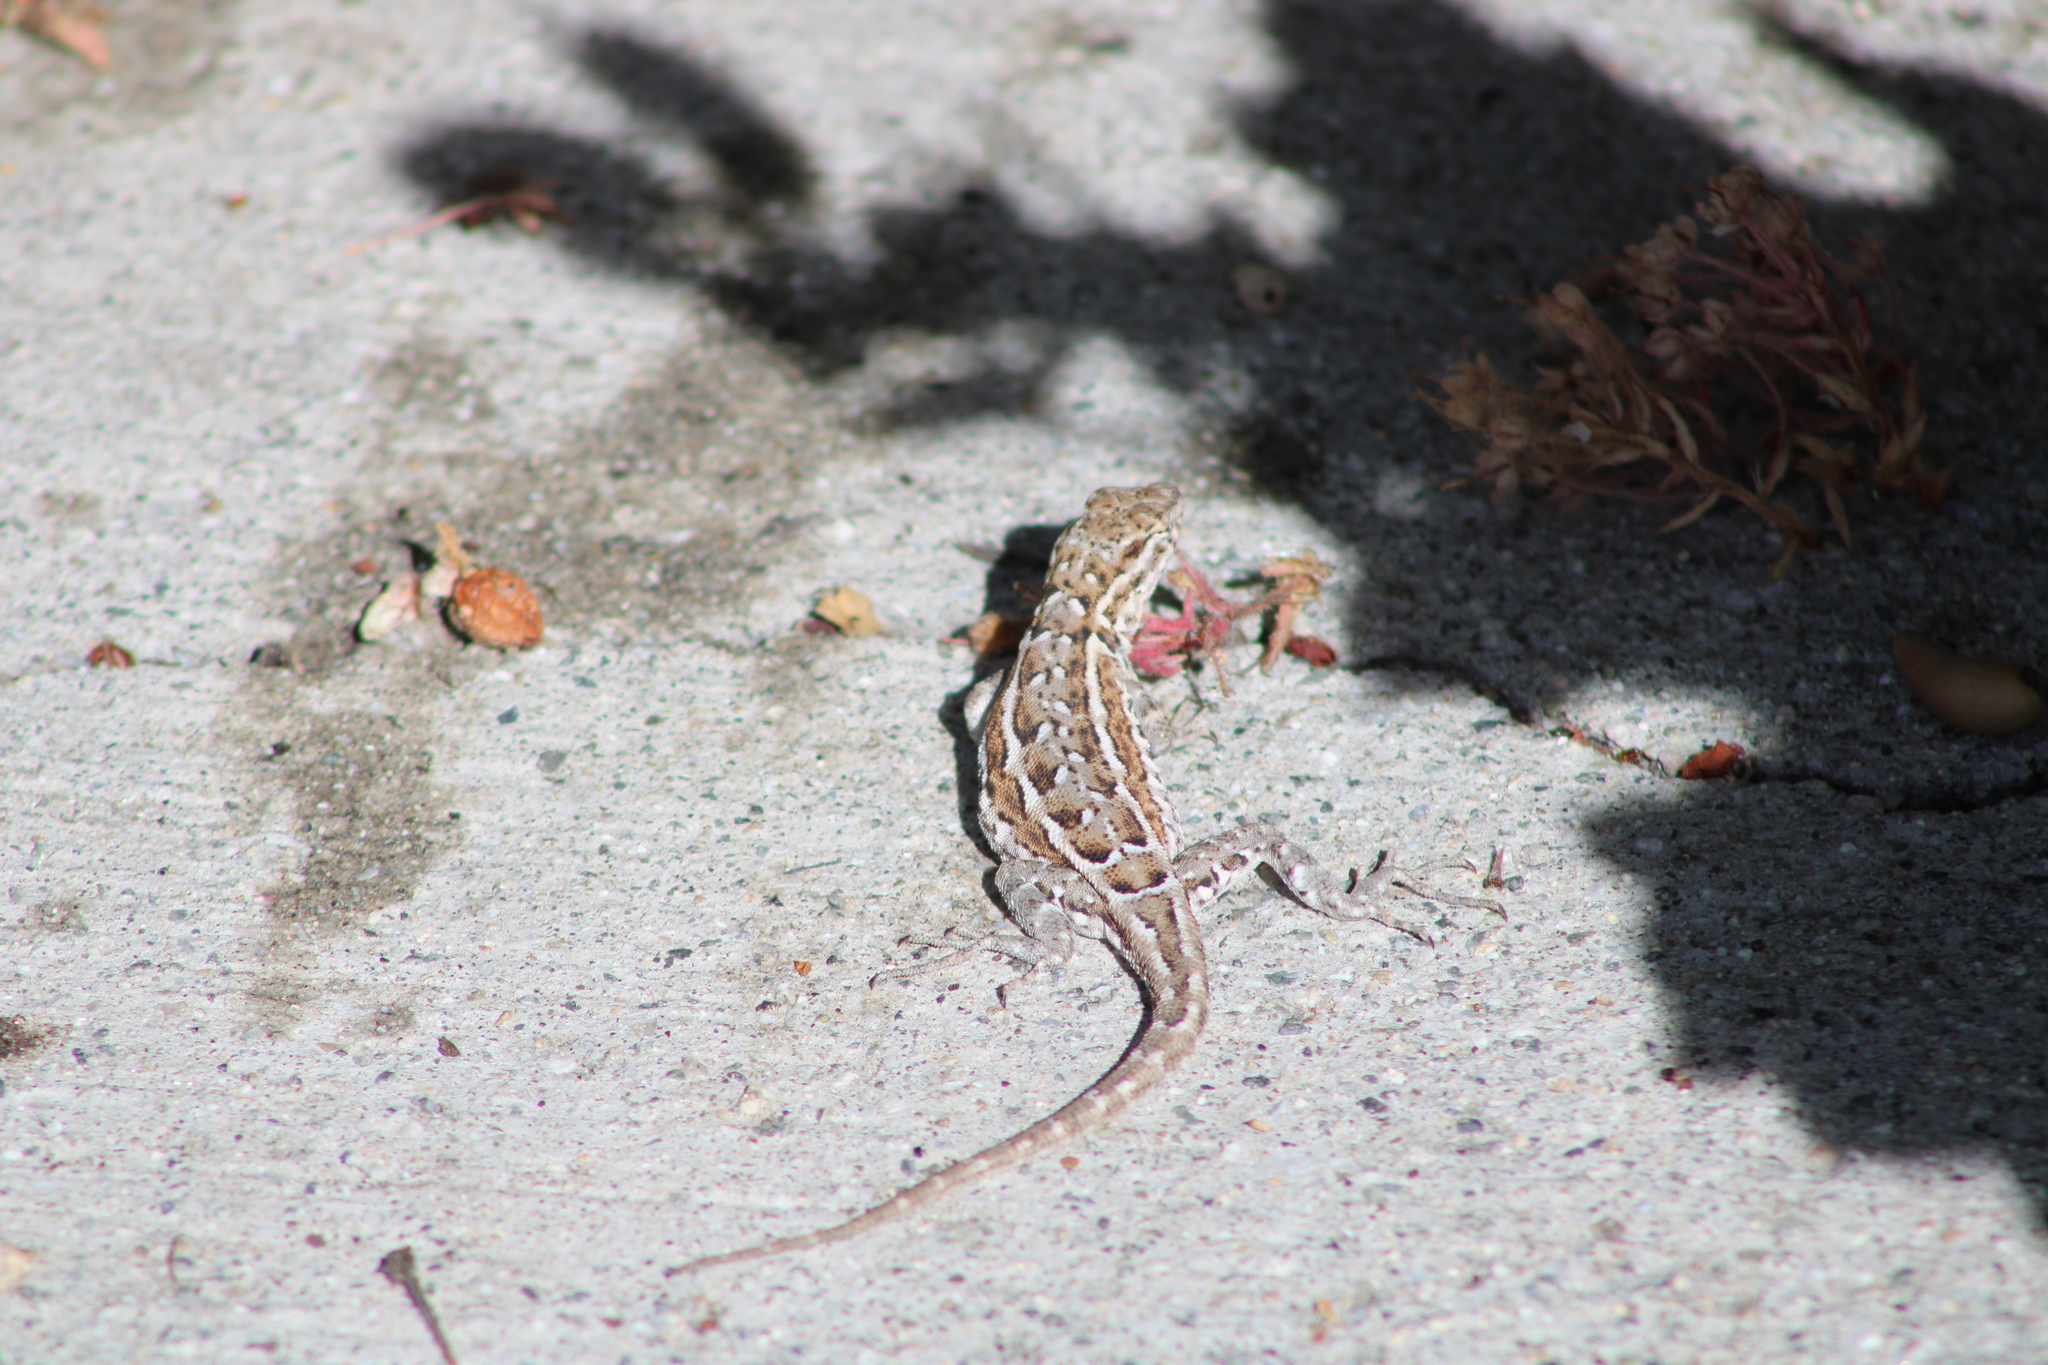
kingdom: Animalia
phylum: Chordata
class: Squamata
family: Phrynosomatidae
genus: Uta
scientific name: Uta stansburiana
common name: Side-blotched lizard
